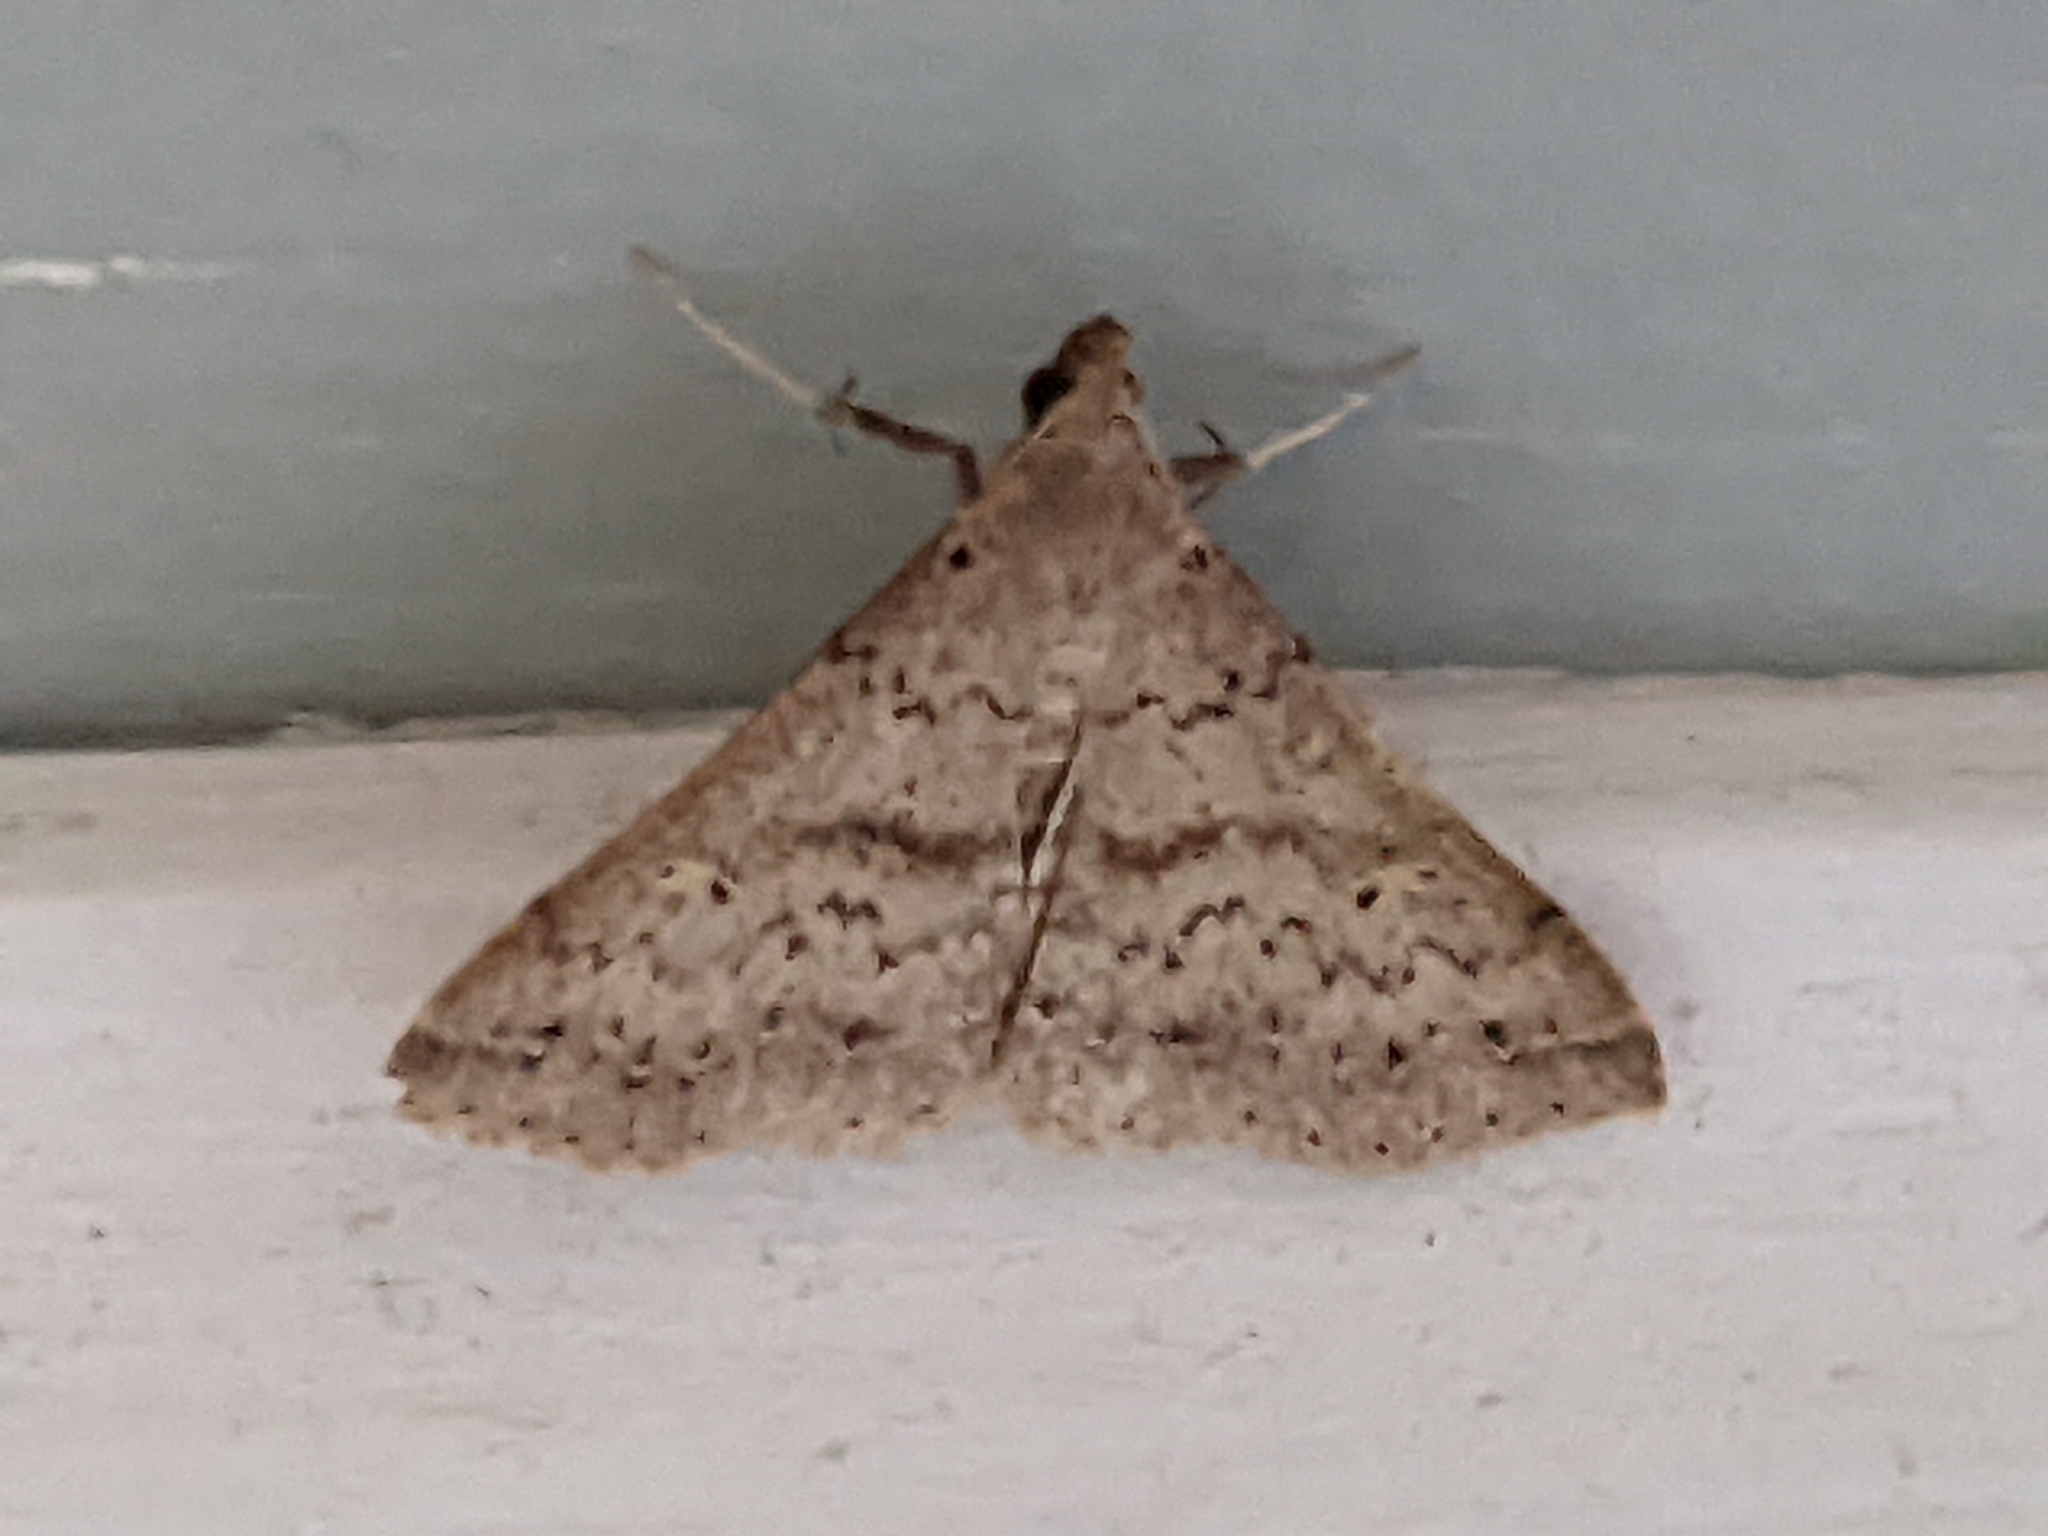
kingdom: Animalia
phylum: Arthropoda
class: Insecta
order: Lepidoptera
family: Erebidae
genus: Renia
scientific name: Renia salusalis
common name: Dotted renia moth
